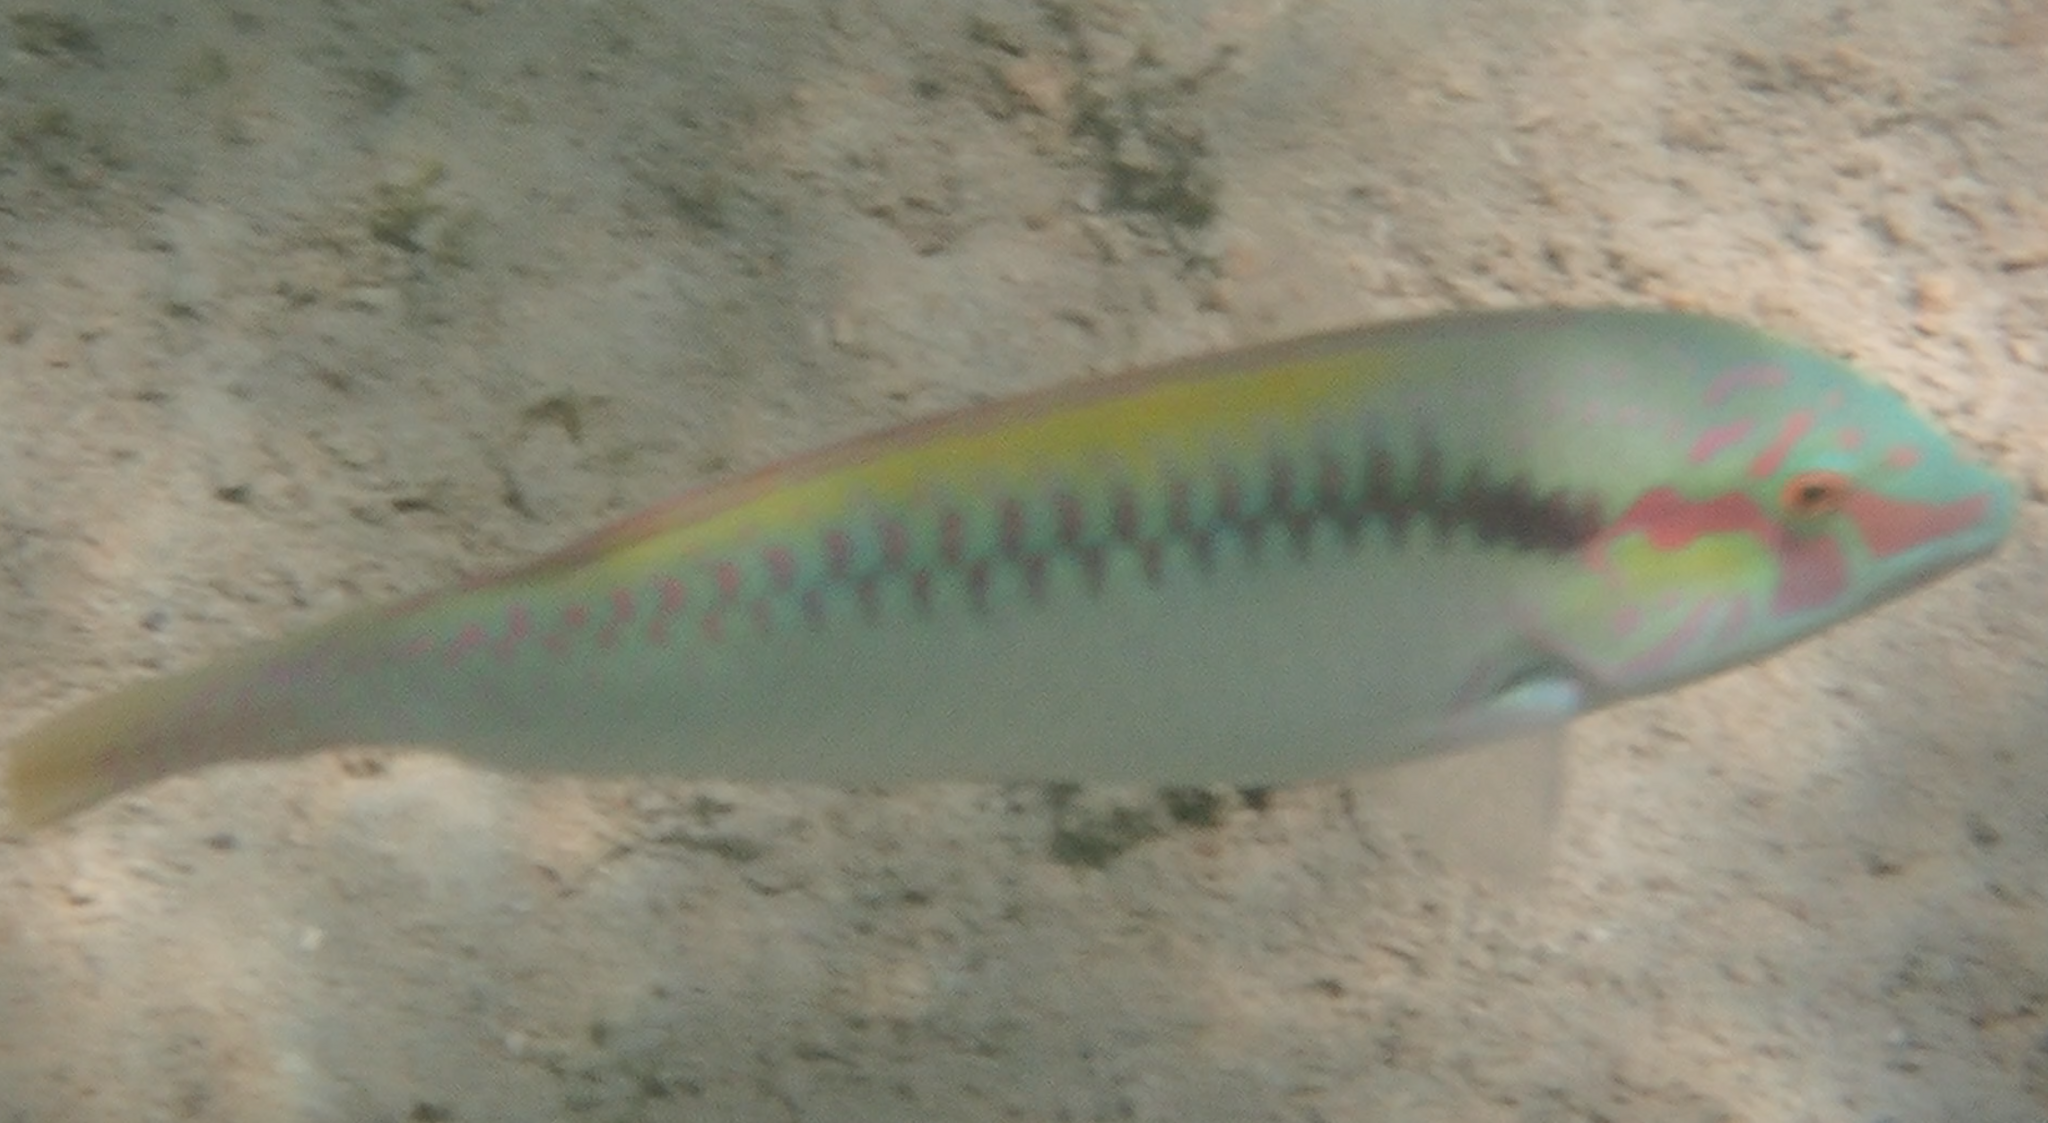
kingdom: Animalia
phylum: Chordata
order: Perciformes
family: Labridae
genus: Halichoeres
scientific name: Halichoeres scapularis
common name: Brownbanded wrasse
